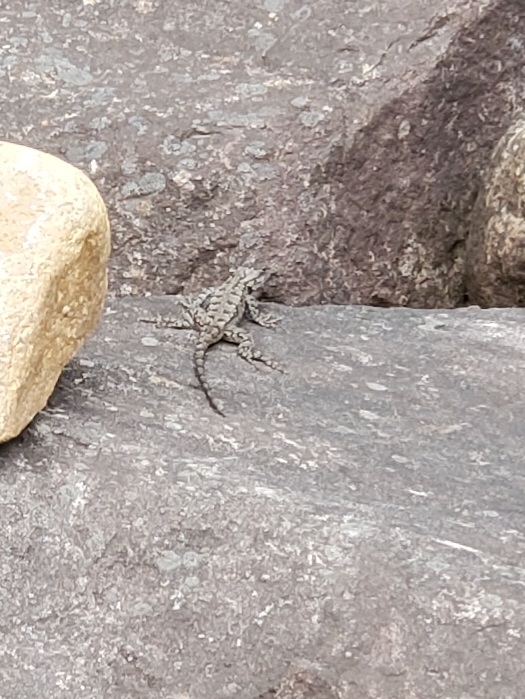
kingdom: Animalia
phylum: Chordata
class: Squamata
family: Phrynosomatidae
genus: Sceloporus
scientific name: Sceloporus undulatus
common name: Eastern fence lizard
